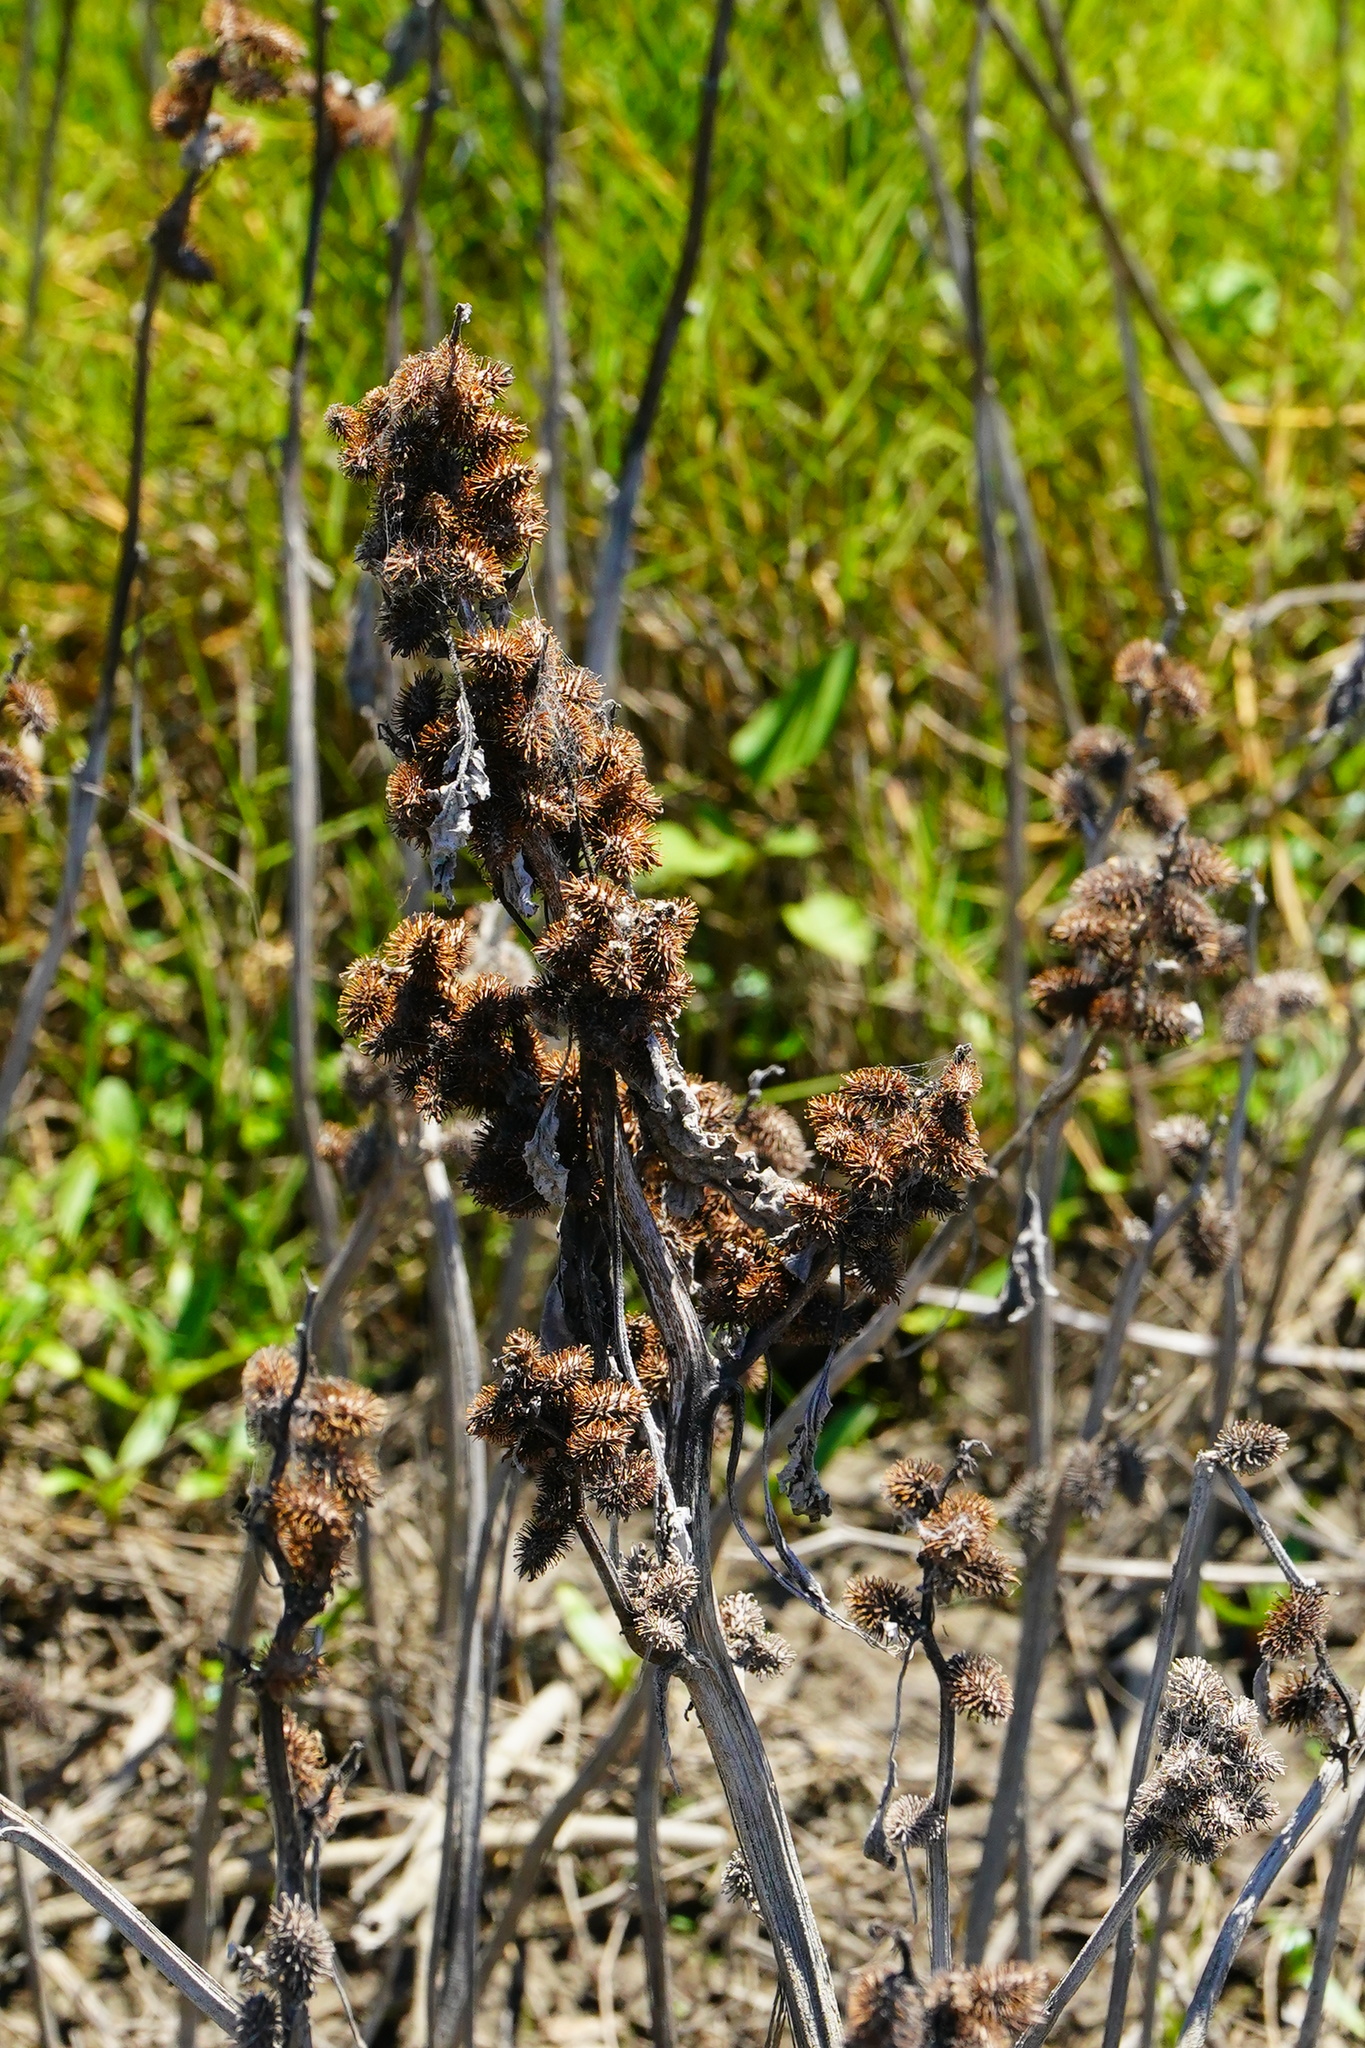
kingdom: Plantae
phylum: Tracheophyta
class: Magnoliopsida
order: Asterales
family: Asteraceae
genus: Xanthium
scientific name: Xanthium strumarium
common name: Rough cocklebur
